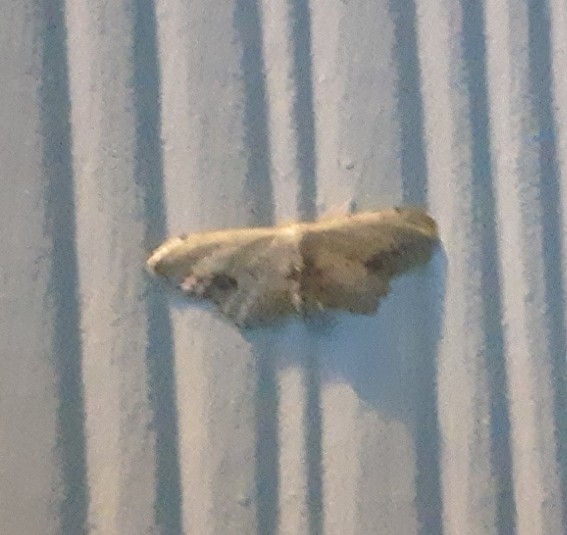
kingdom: Animalia
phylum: Arthropoda
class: Insecta
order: Lepidoptera
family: Geometridae
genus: Idaea
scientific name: Idaea dimidiata
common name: Single-dotted wave
